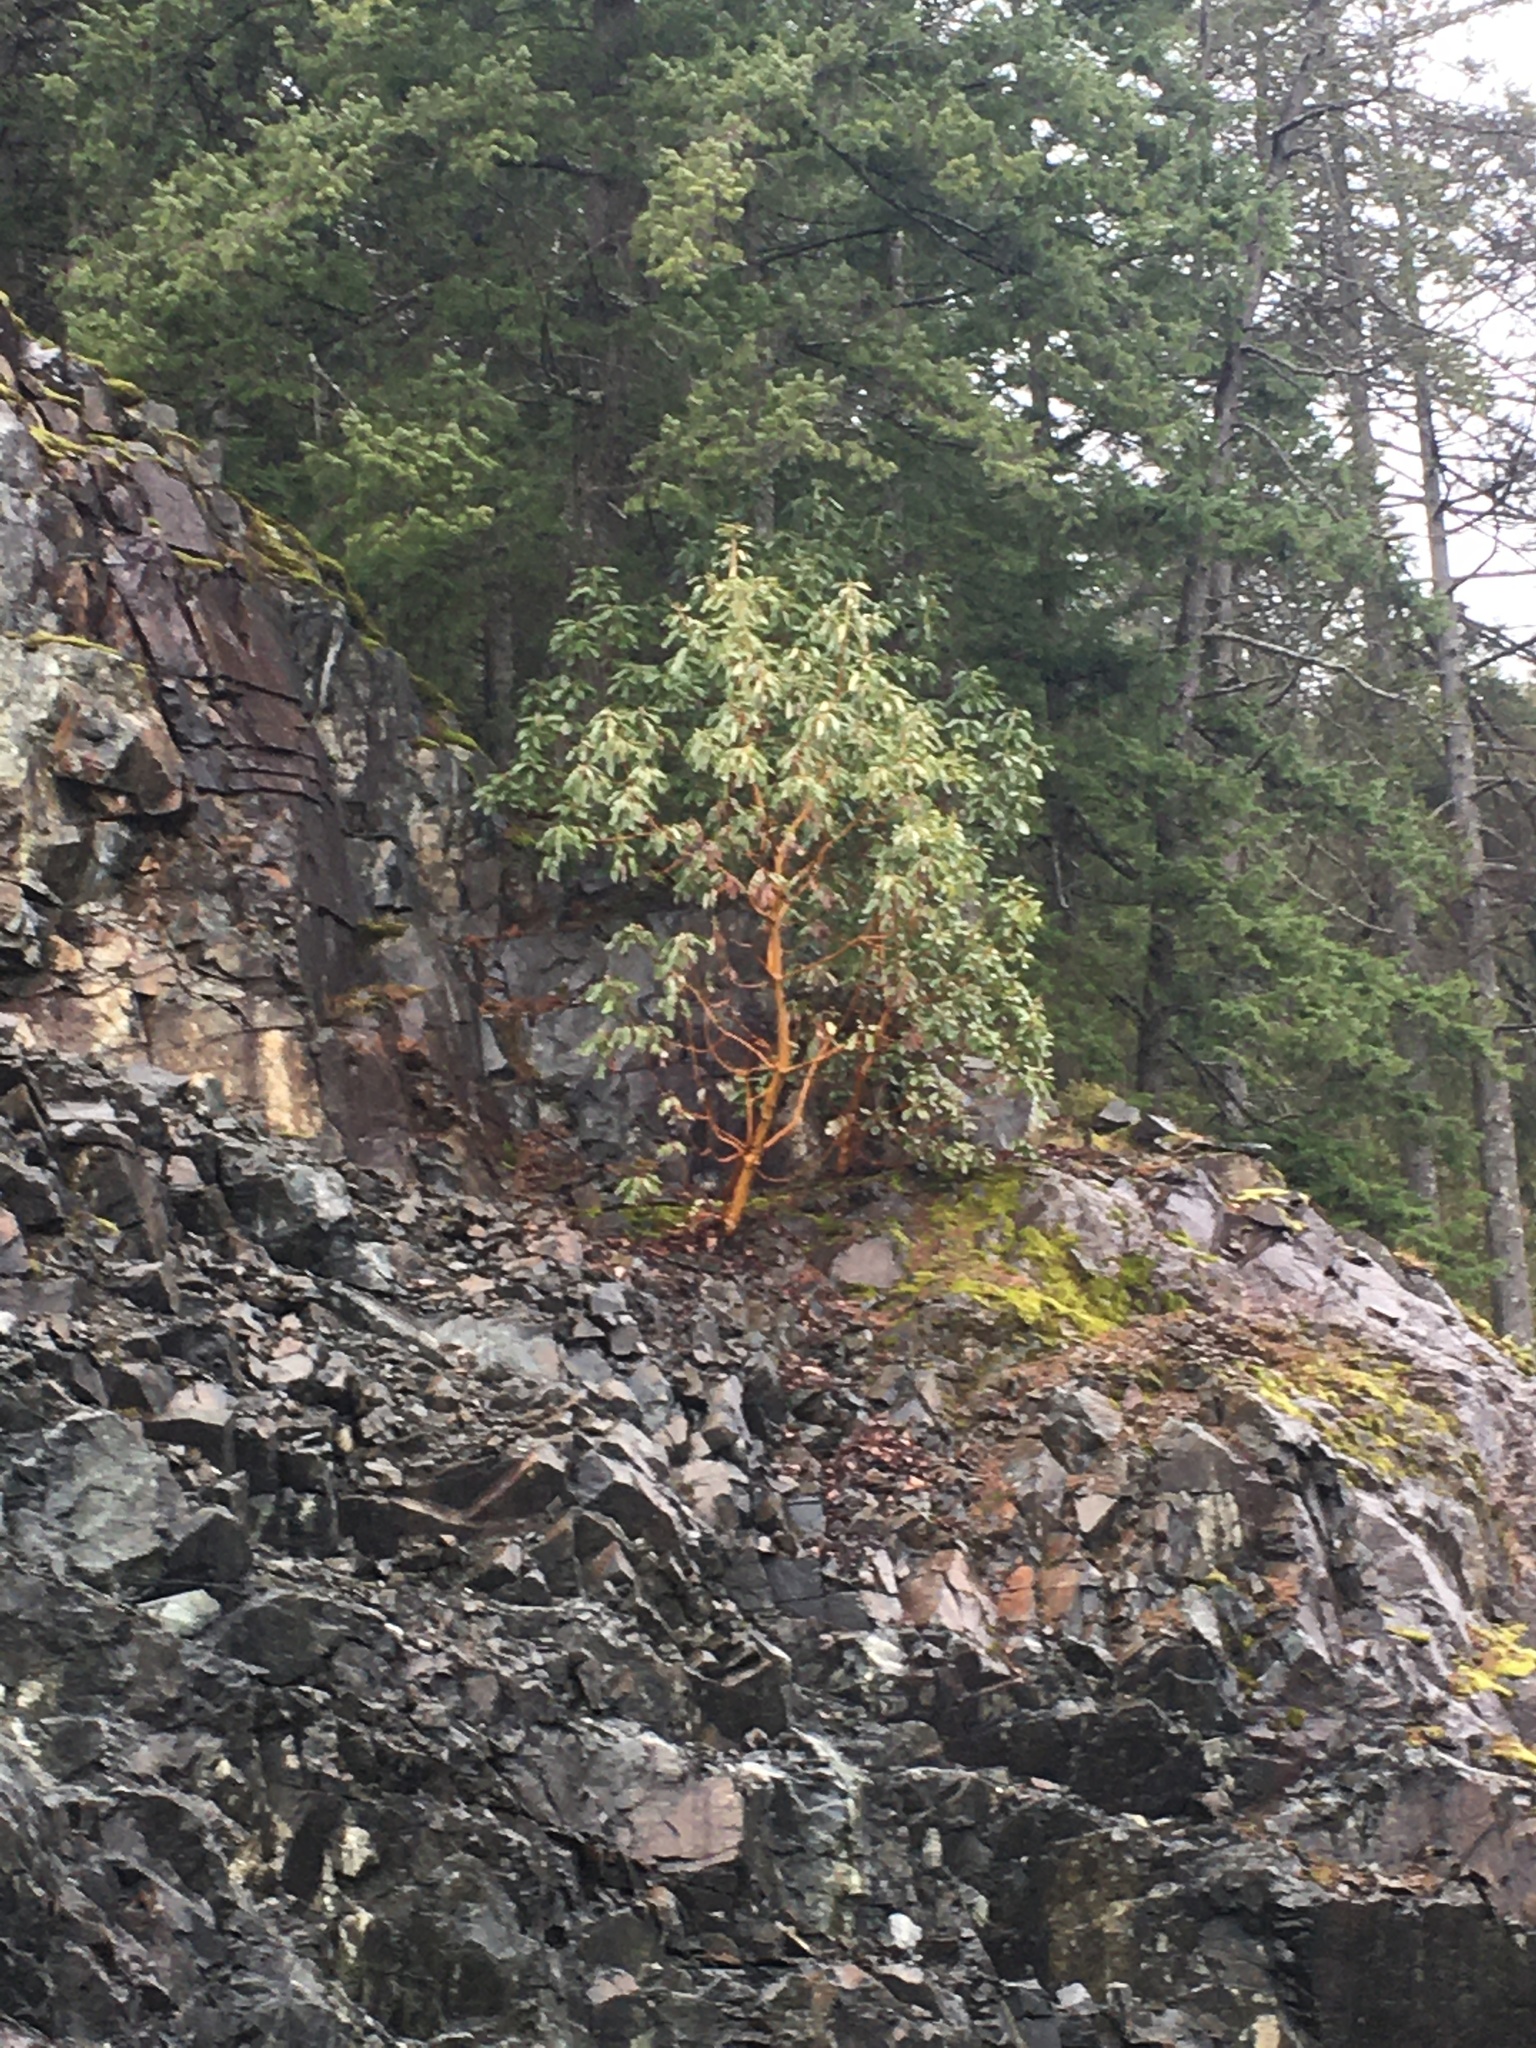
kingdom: Plantae
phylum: Tracheophyta
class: Magnoliopsida
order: Ericales
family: Ericaceae
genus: Arbutus
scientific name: Arbutus menziesii
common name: Pacific madrone
